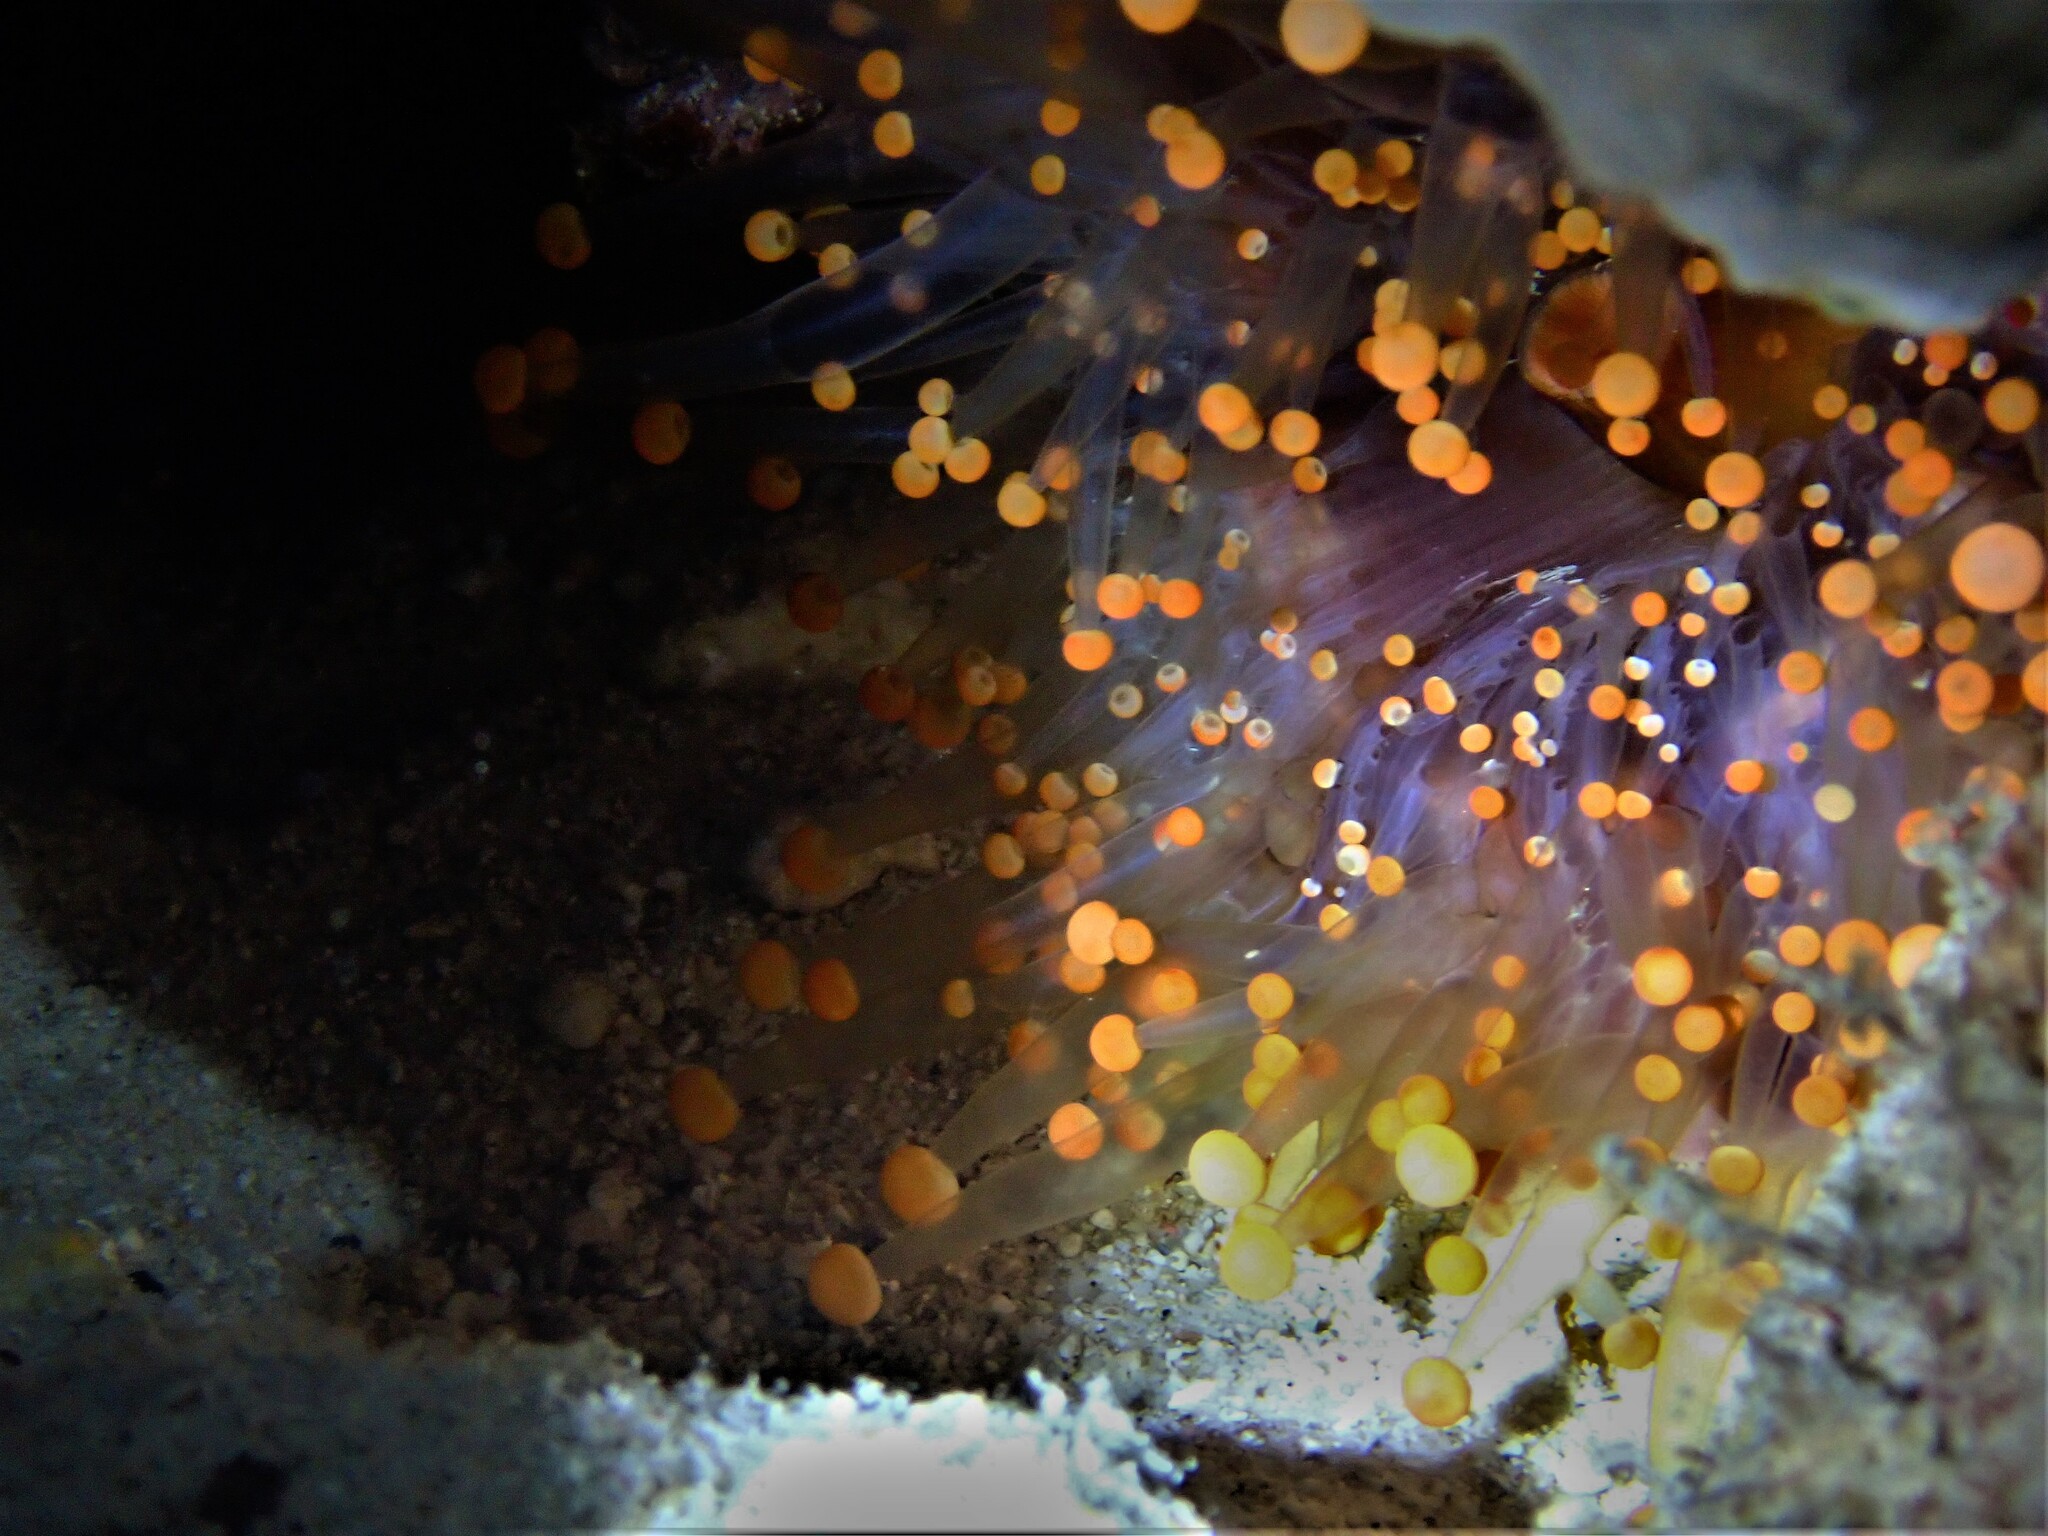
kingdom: Animalia
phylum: Cnidaria
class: Anthozoa
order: Corallimorpharia
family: Corallimorphidae
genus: Pseudocorynactis
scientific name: Pseudocorynactis caribbeorum
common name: Orange ball anemone
